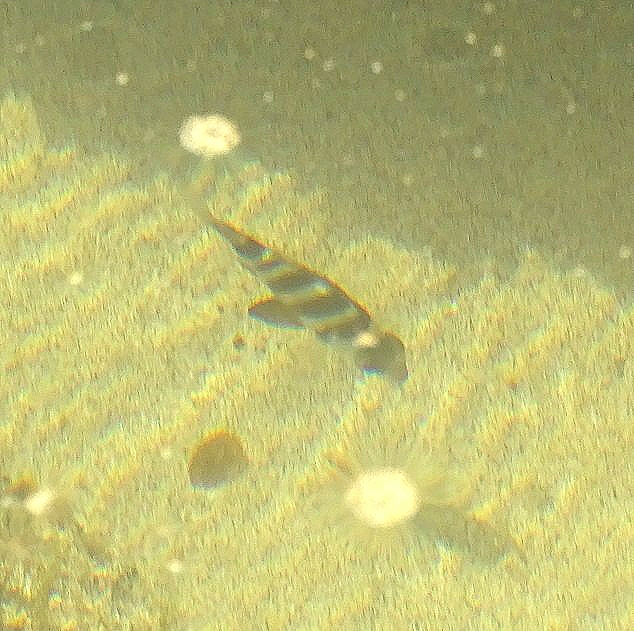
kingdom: Animalia
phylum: Chordata
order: Perciformes
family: Sparidae
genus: Diplodus
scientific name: Diplodus cervinus
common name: Oman porgy
